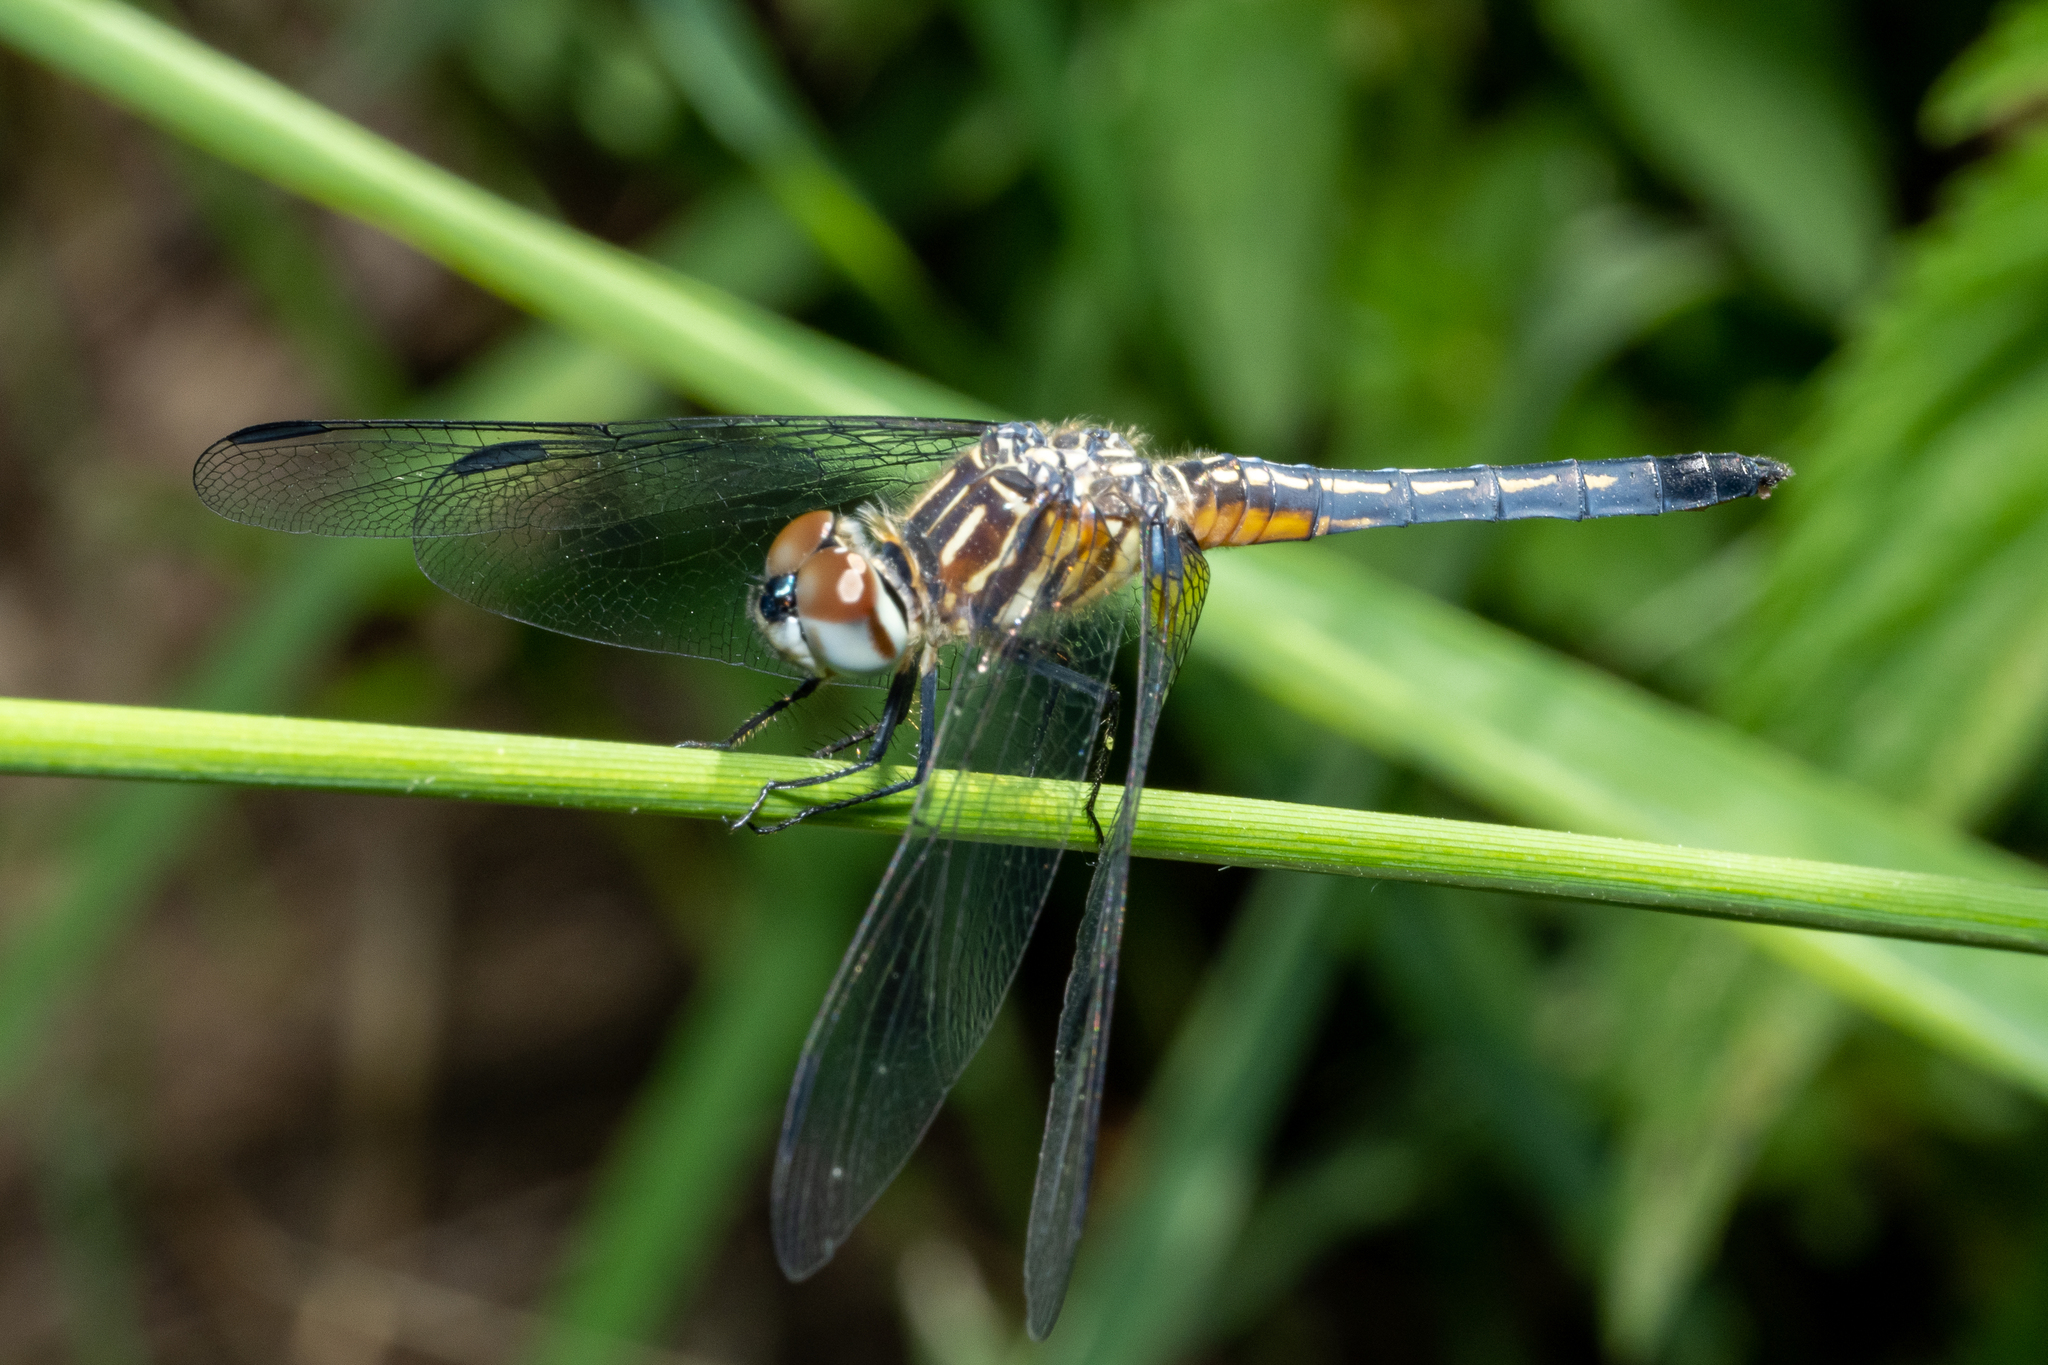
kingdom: Animalia
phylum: Arthropoda
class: Insecta
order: Odonata
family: Libellulidae
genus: Pachydiplax
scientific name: Pachydiplax longipennis
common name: Blue dasher
